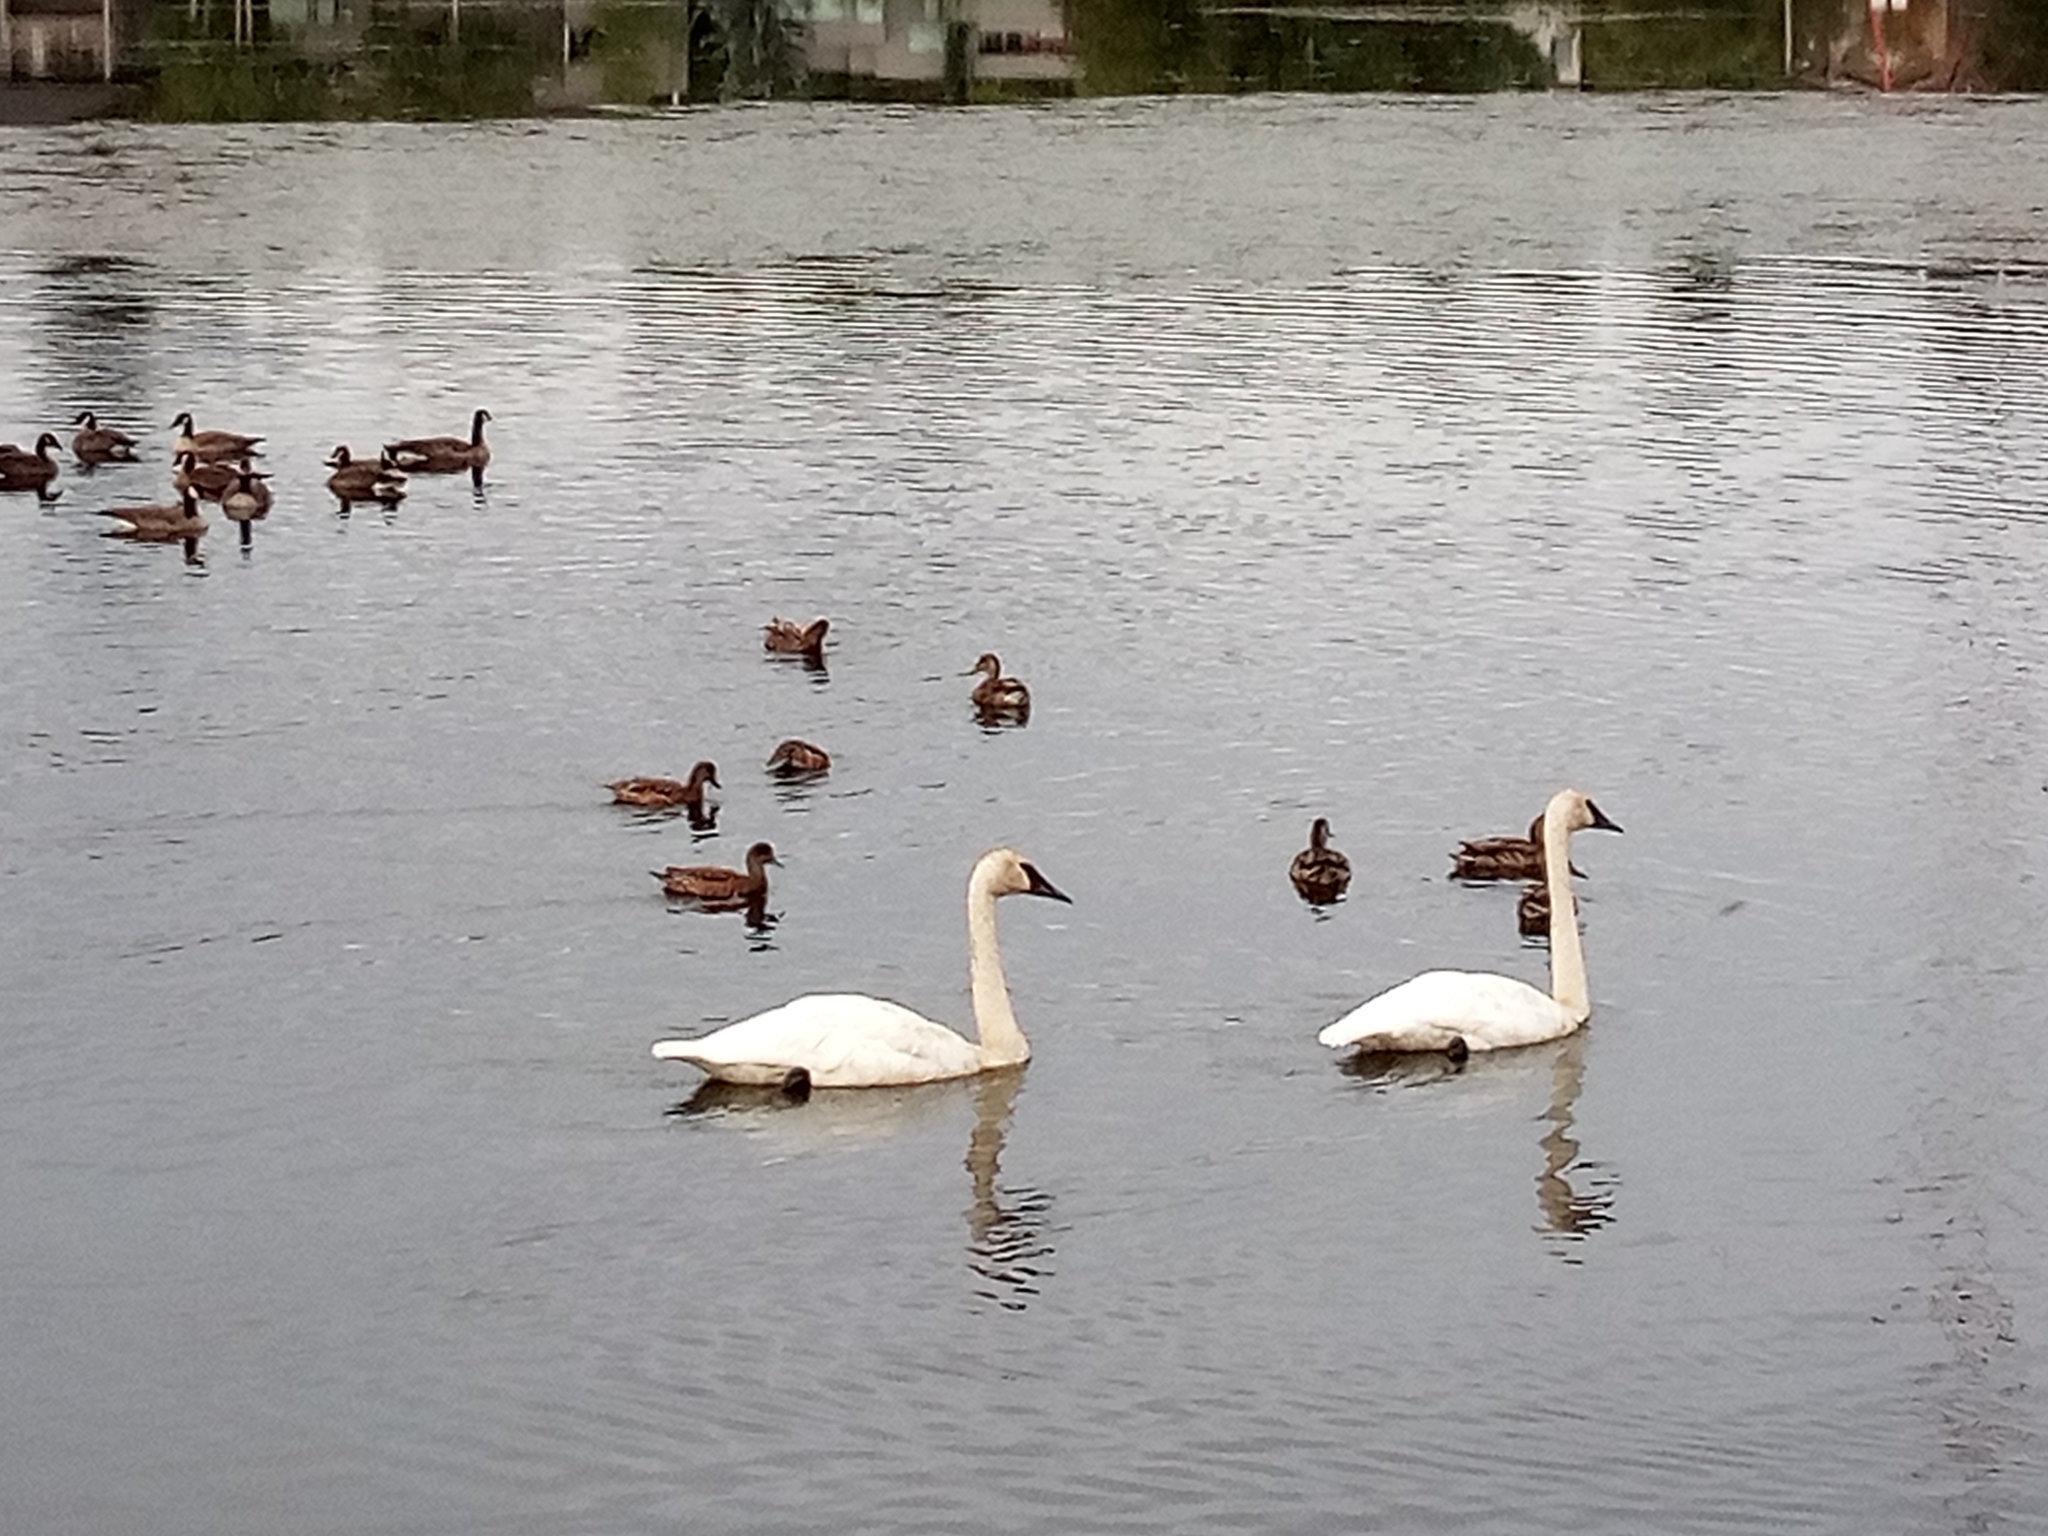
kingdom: Animalia
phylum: Chordata
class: Aves
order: Anseriformes
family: Anatidae
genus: Cygnus
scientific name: Cygnus buccinator
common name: Trumpeter swan
